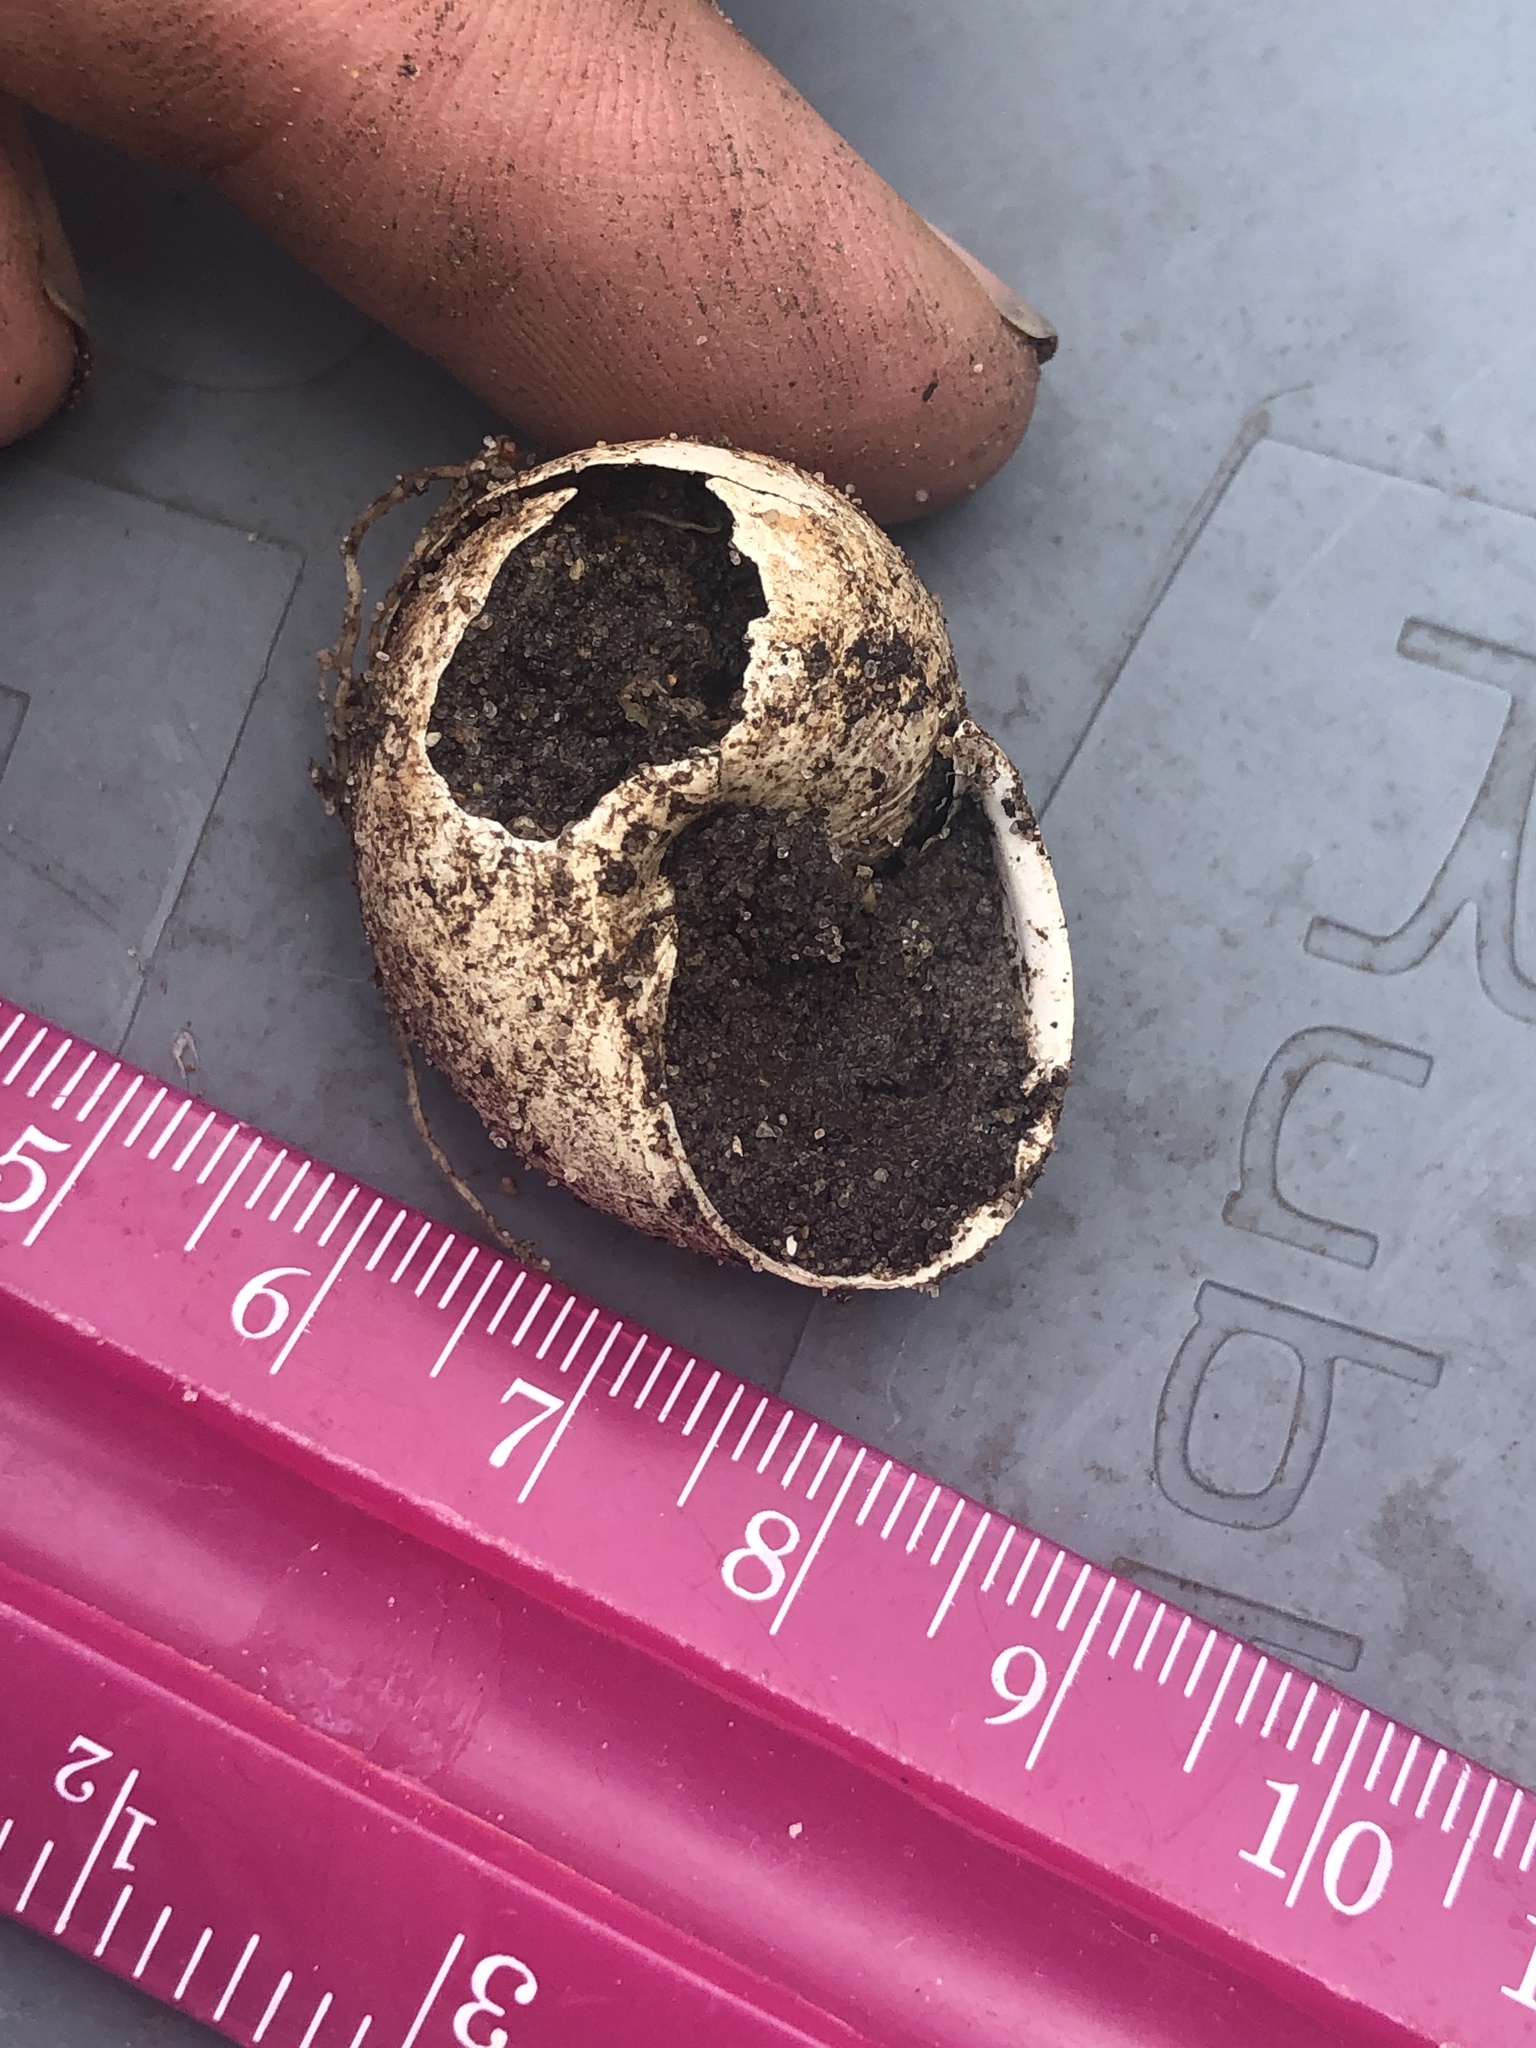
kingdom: Animalia
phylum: Mollusca
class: Gastropoda
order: Stylommatophora
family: Helicidae
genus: Cornu
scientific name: Cornu aspersum
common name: Brown garden snail
